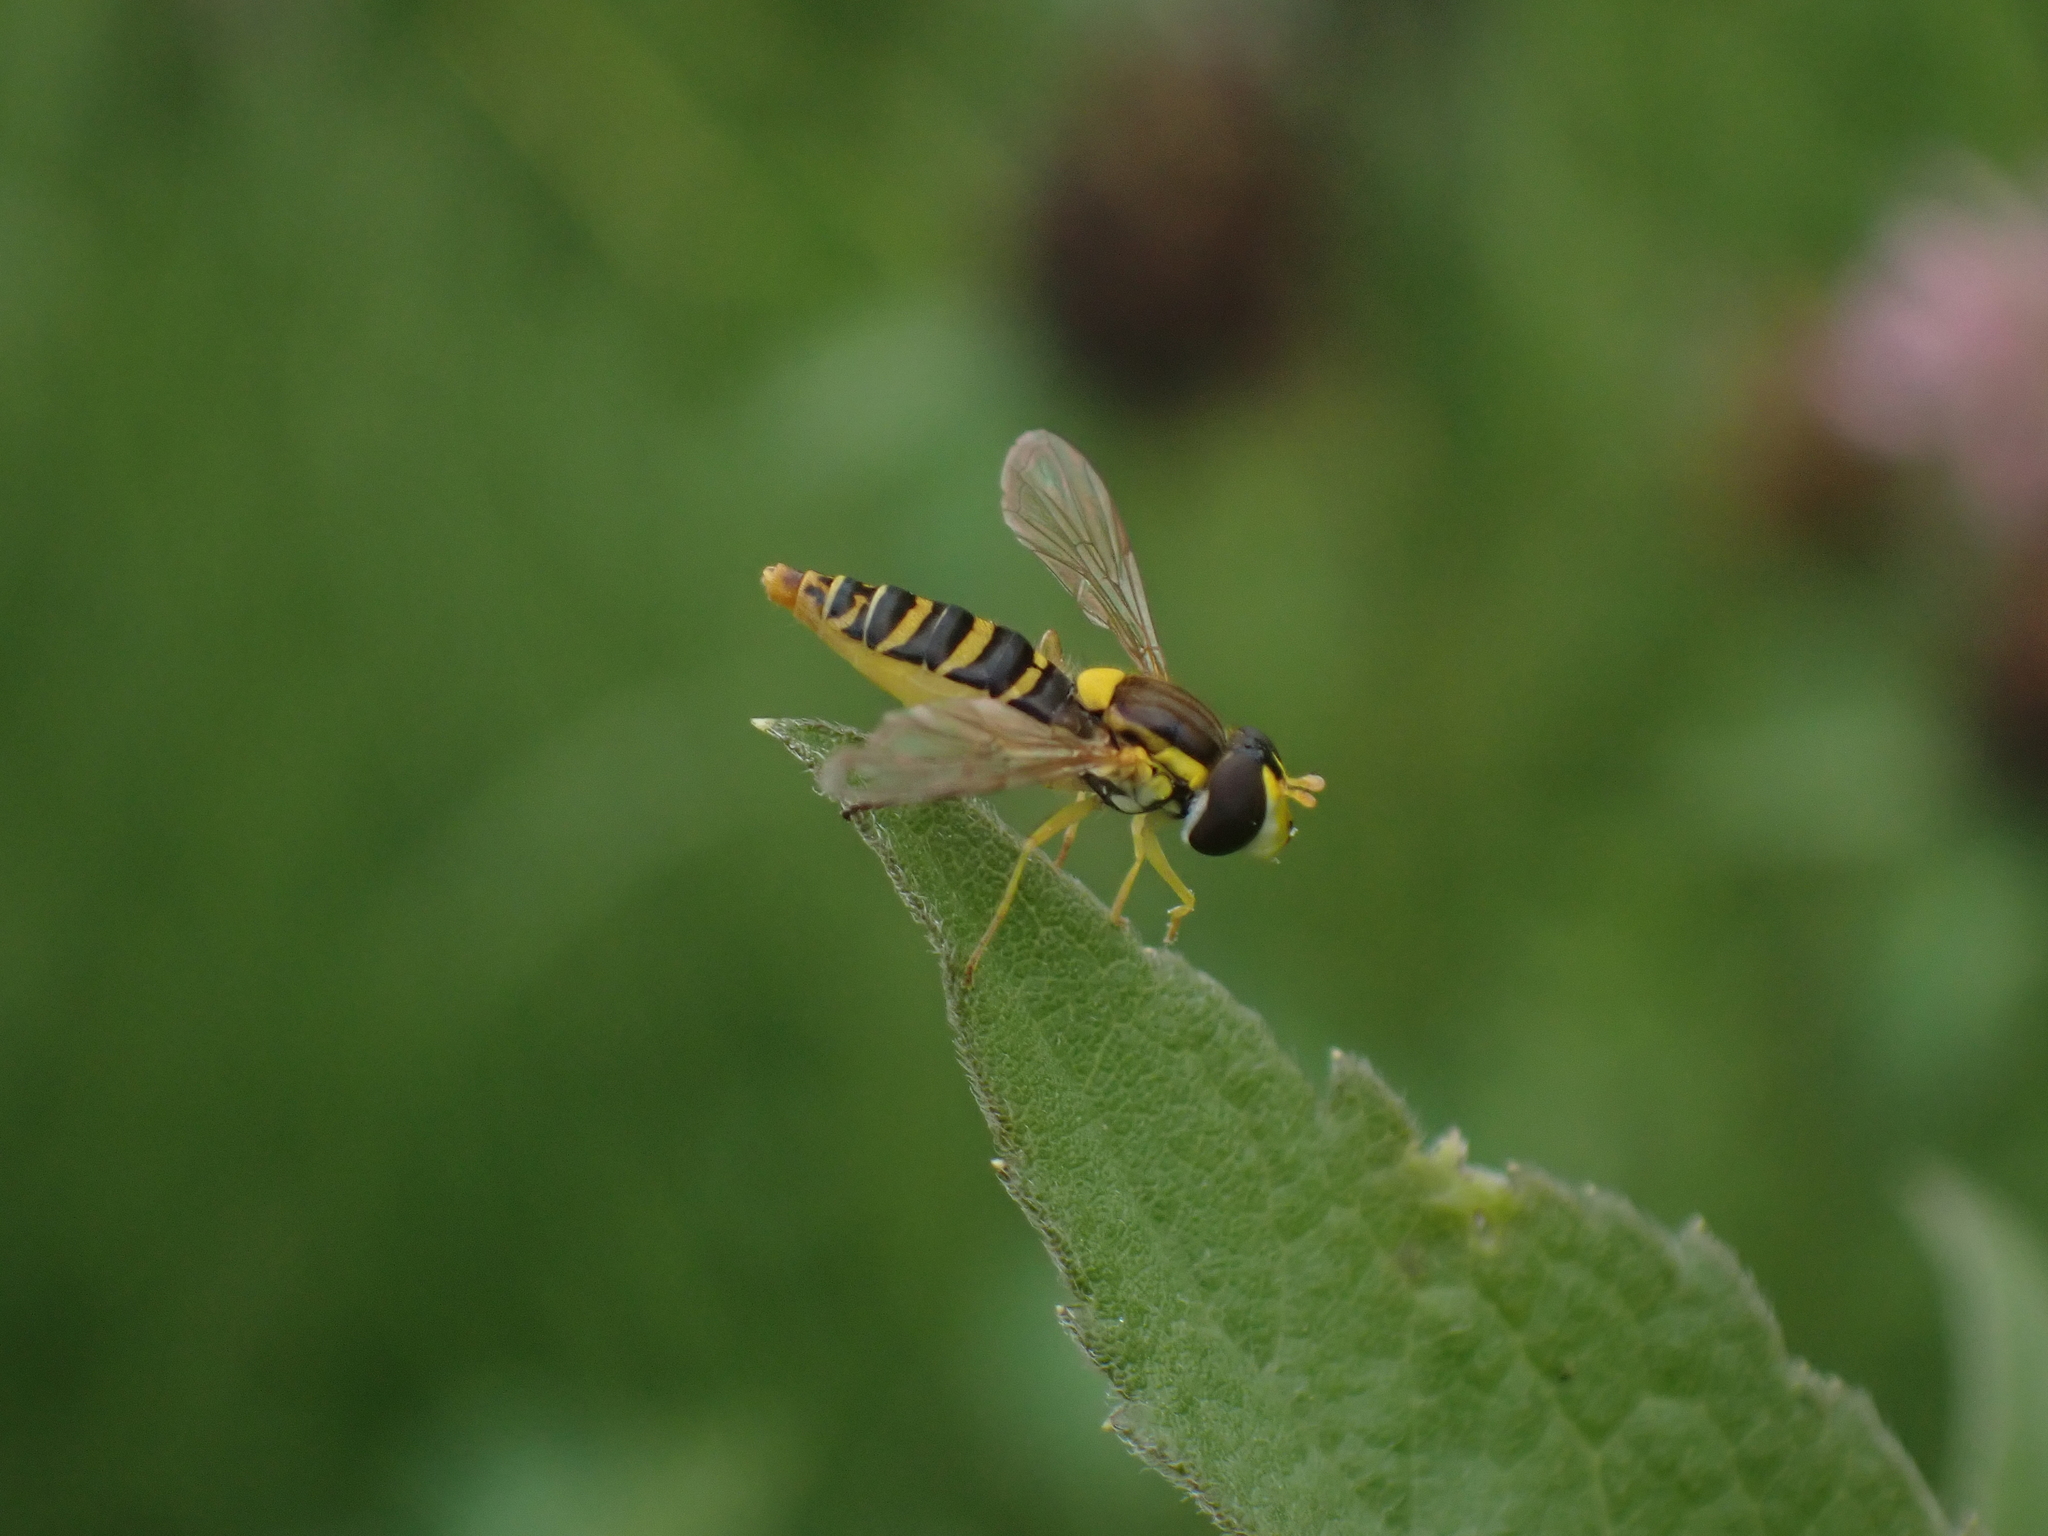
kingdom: Animalia
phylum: Arthropoda
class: Insecta
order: Diptera
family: Syrphidae
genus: Sphaerophoria
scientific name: Sphaerophoria
